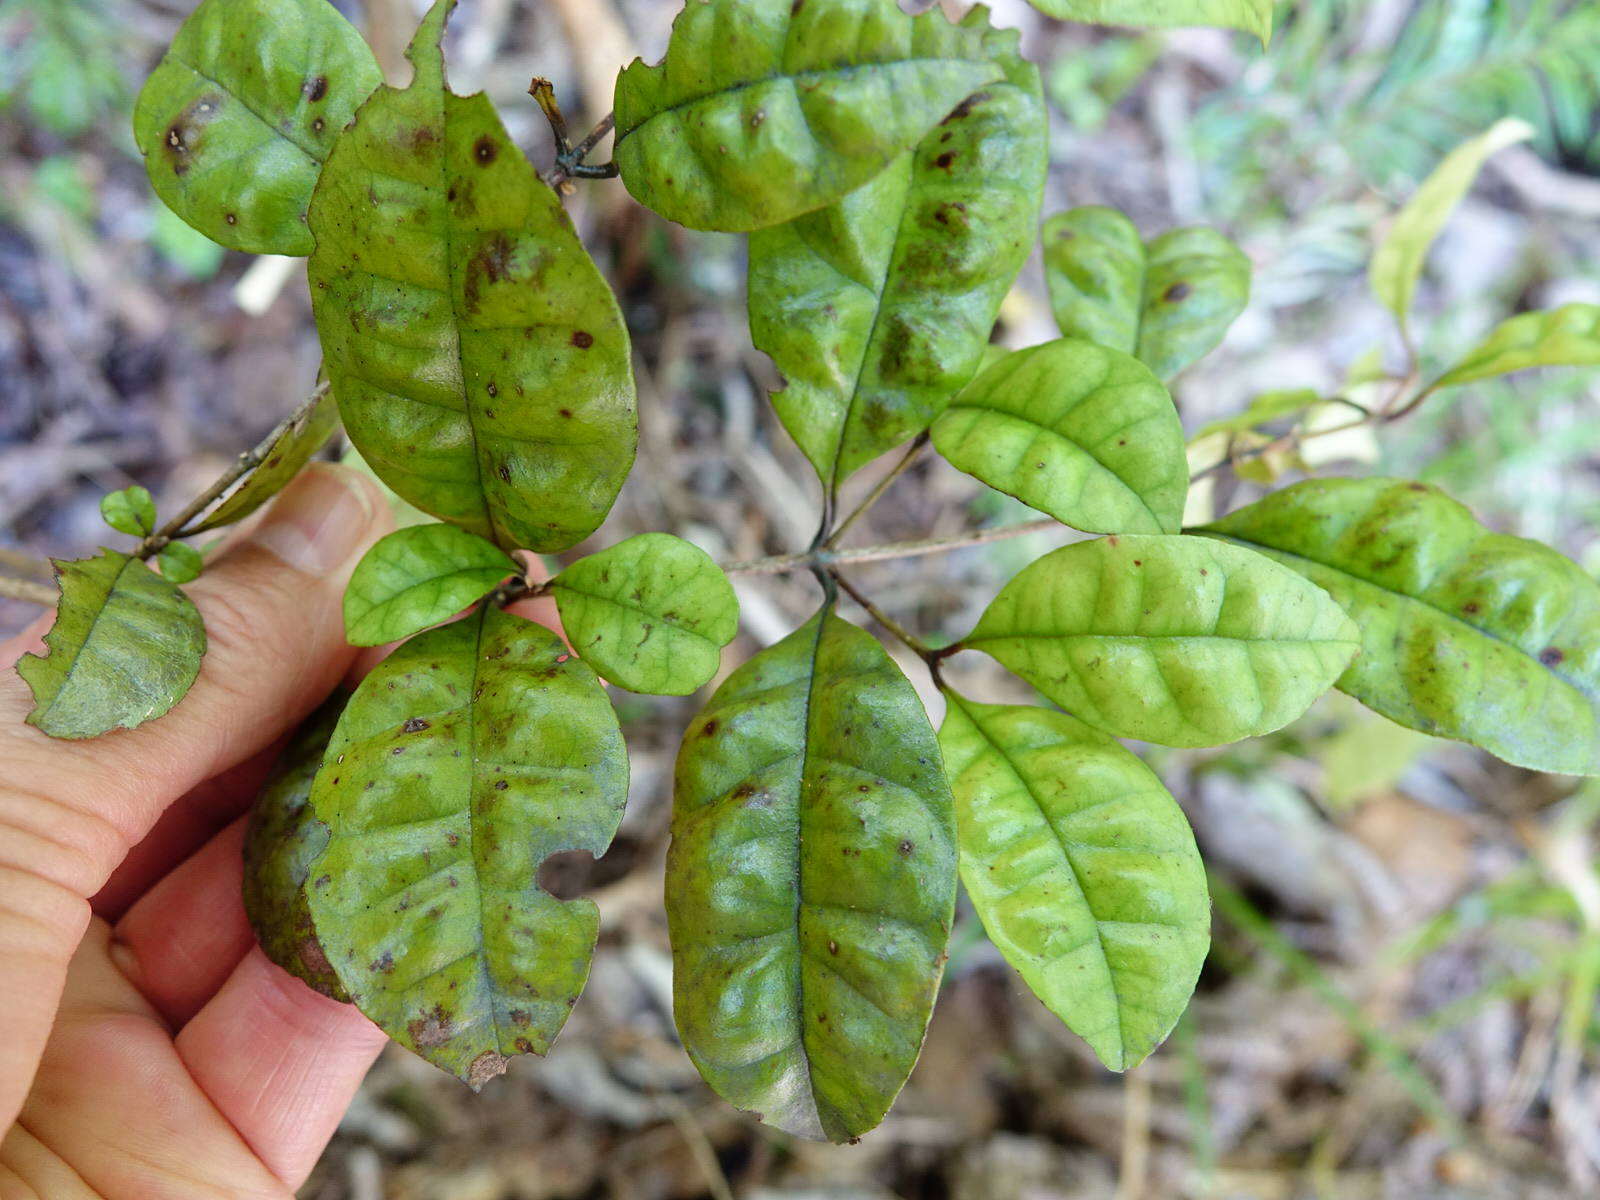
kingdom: Plantae
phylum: Tracheophyta
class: Magnoliopsida
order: Myrtales
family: Myrtaceae
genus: Lophomyrtus
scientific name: Lophomyrtus bullata
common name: Rama rama
